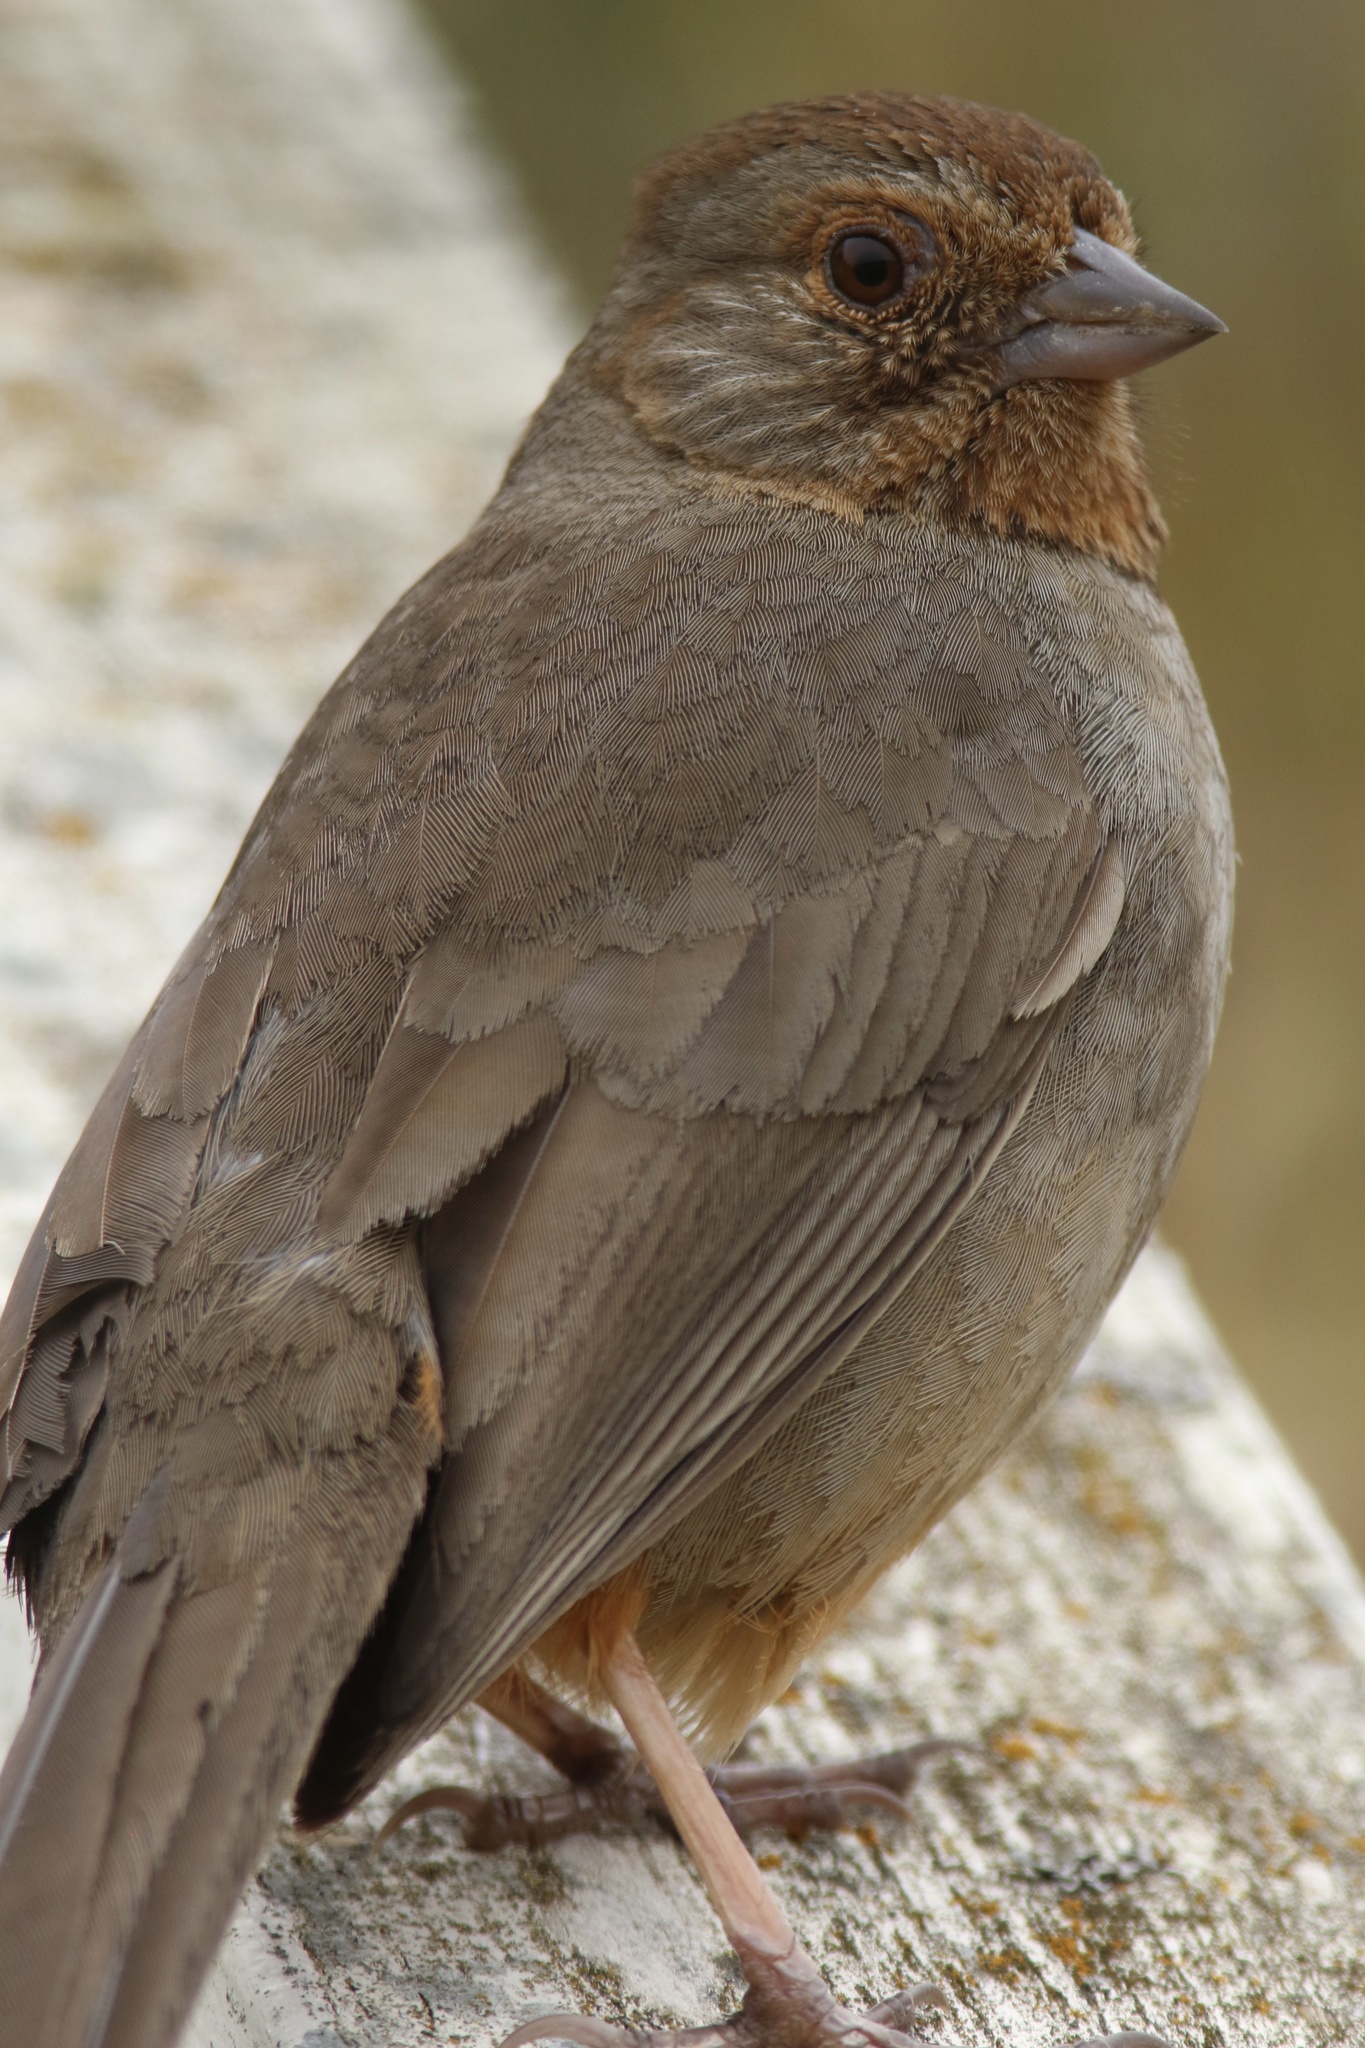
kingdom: Animalia
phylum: Chordata
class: Aves
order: Passeriformes
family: Passerellidae
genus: Melozone
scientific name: Melozone crissalis
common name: California towhee
